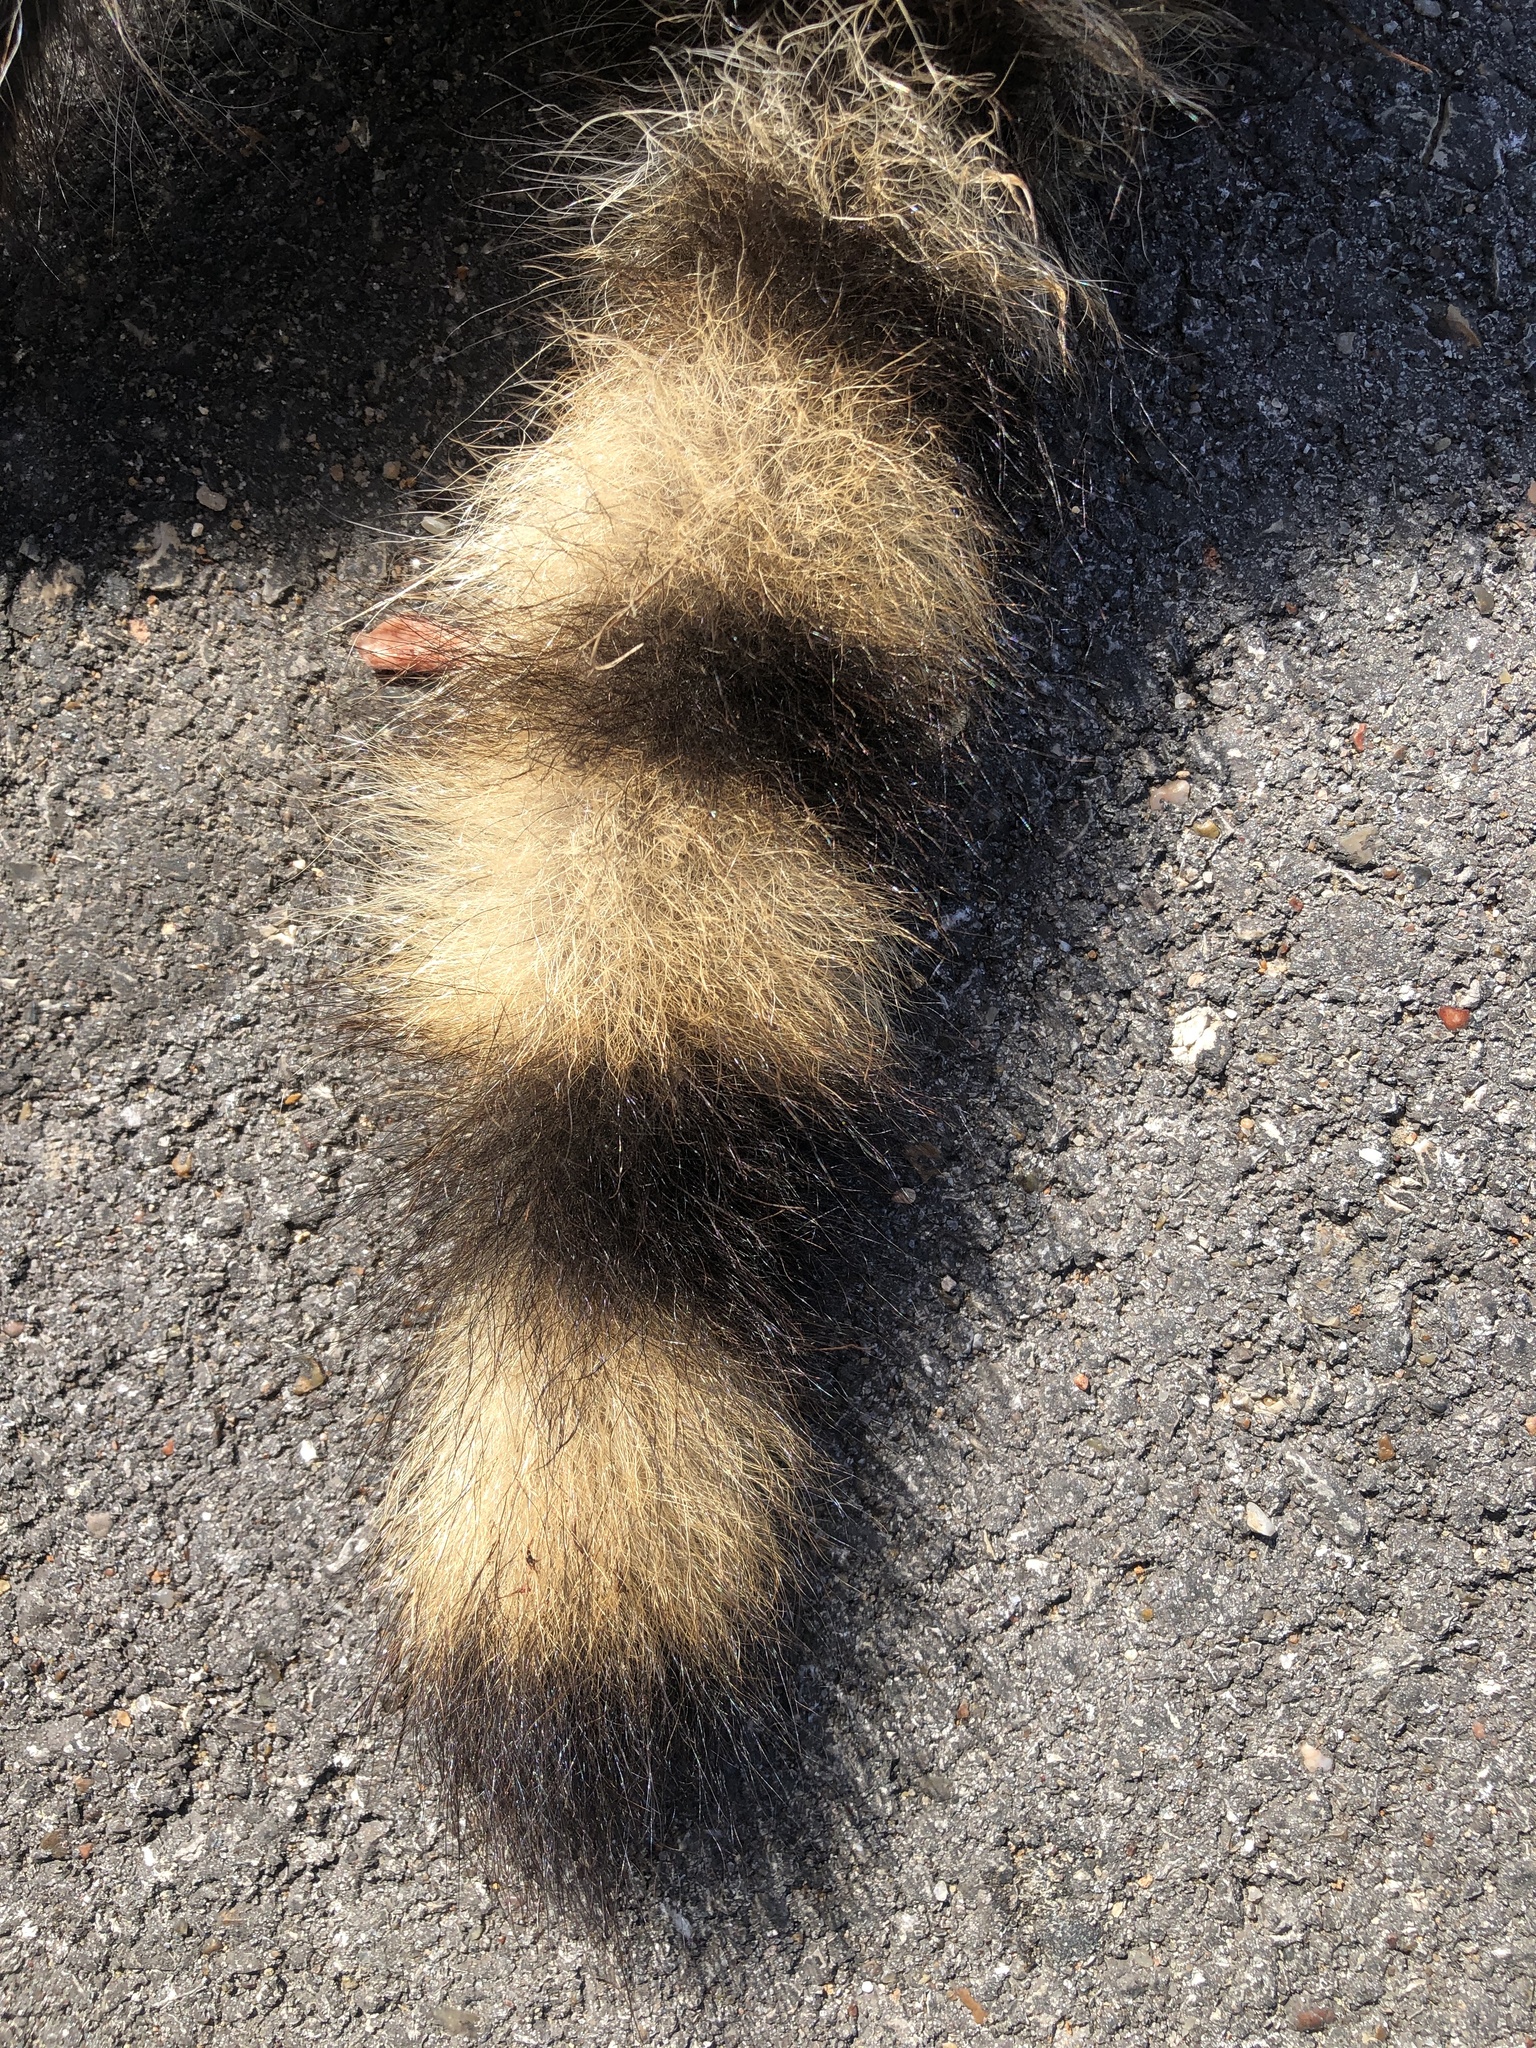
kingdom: Animalia
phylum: Chordata
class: Mammalia
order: Carnivora
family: Procyonidae
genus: Procyon
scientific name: Procyon lotor
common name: Raccoon
